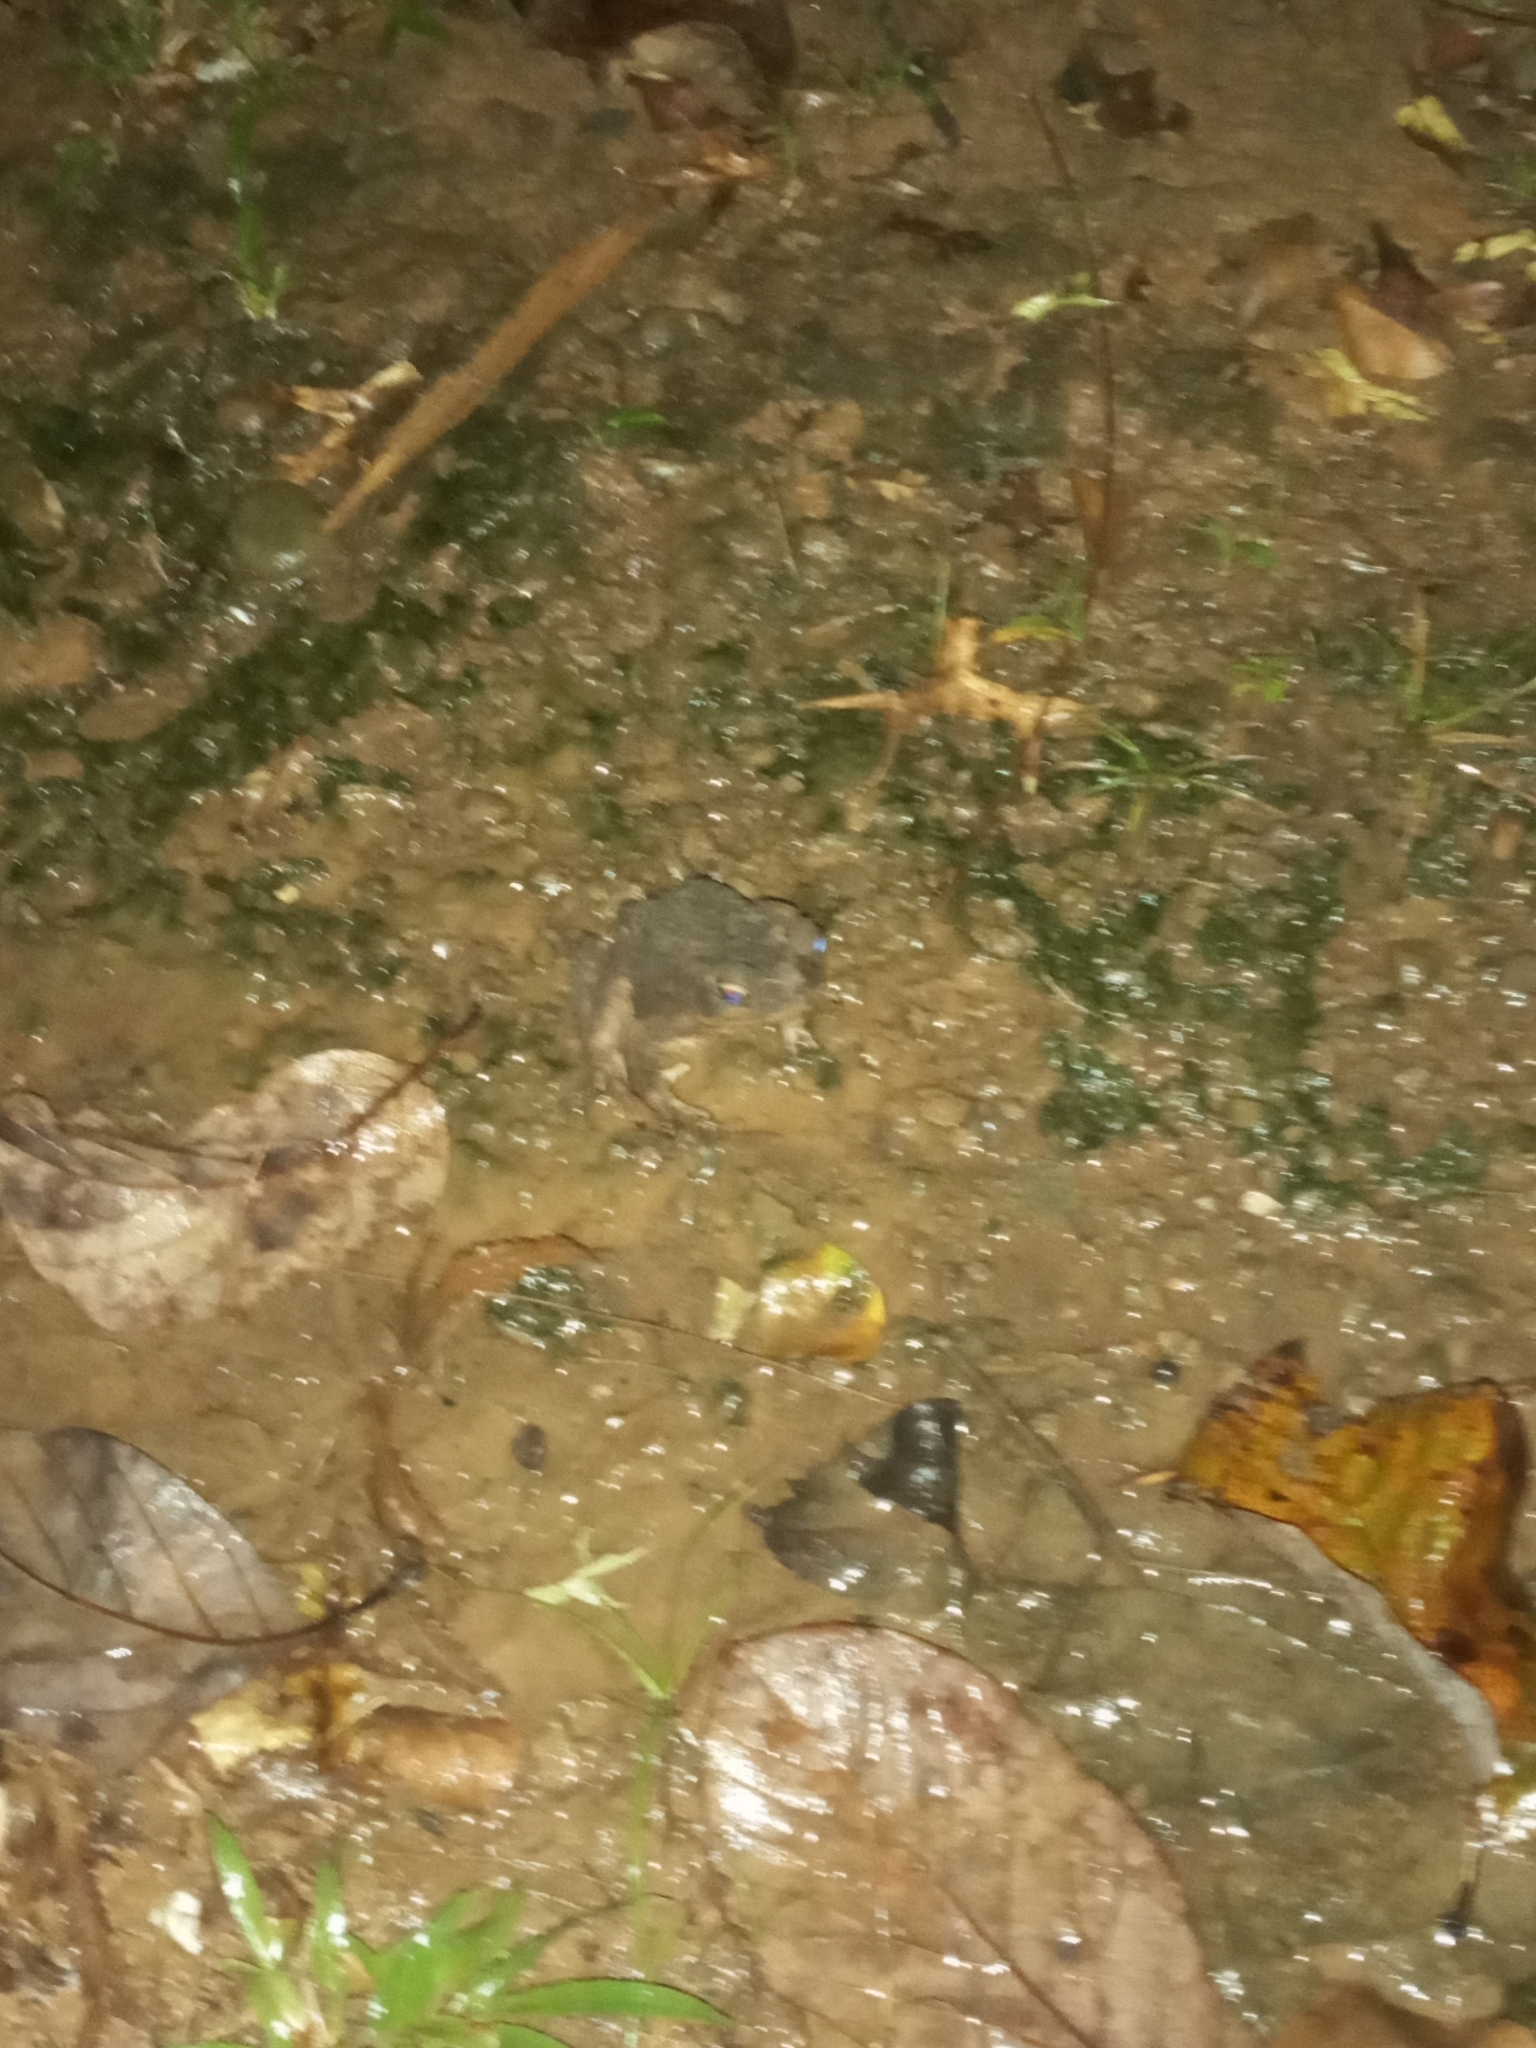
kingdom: Animalia
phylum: Chordata
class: Amphibia
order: Anura
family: Bufonidae
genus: Rhinella
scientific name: Rhinella horribilis
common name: Mesoamerican cane toad
